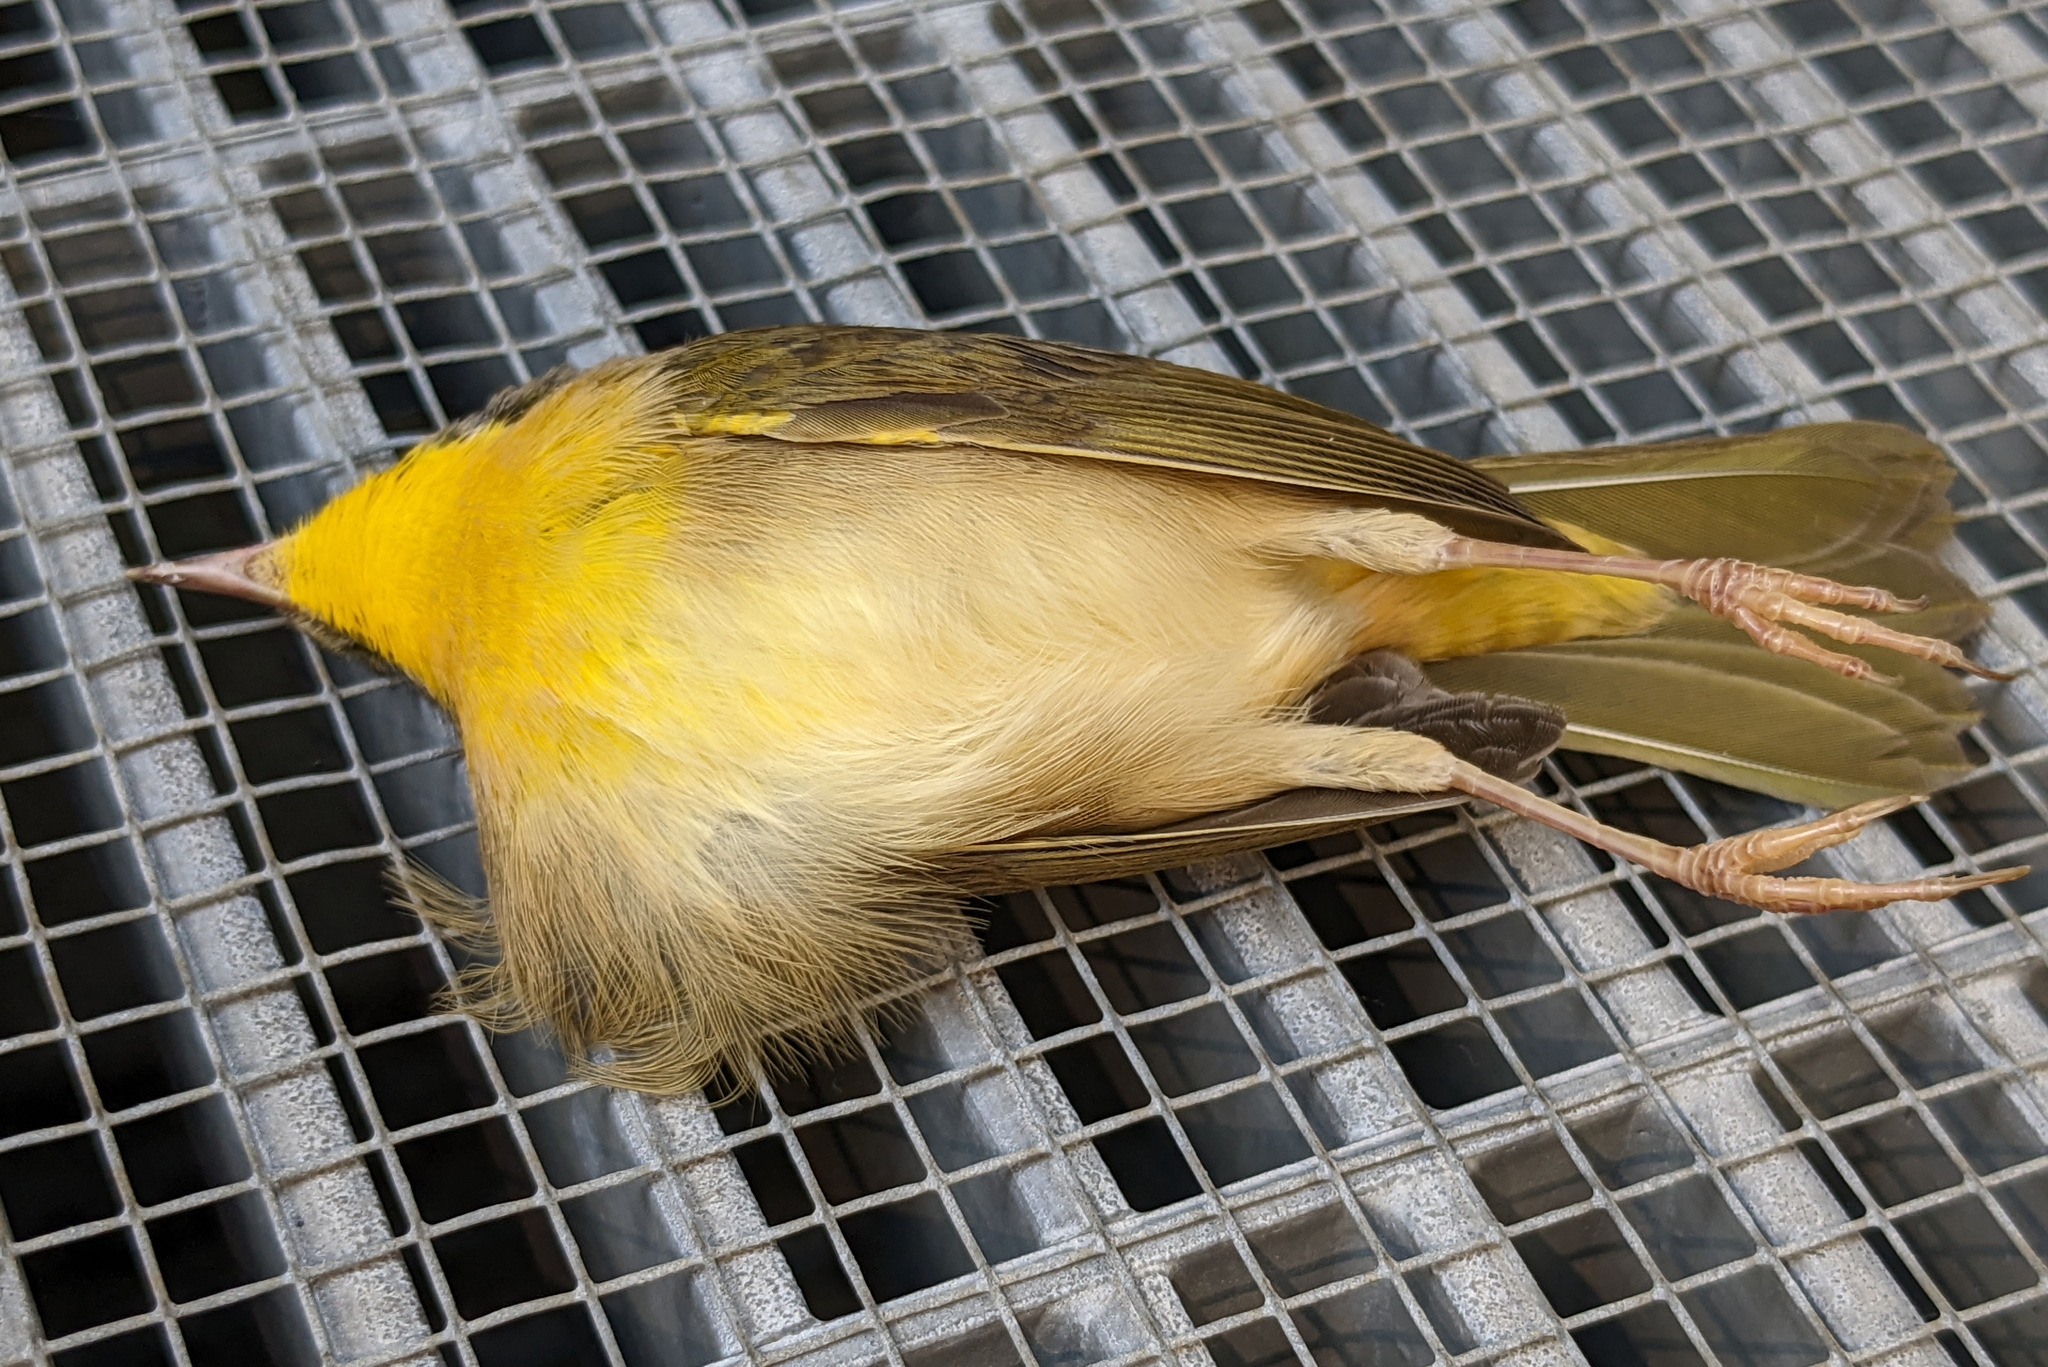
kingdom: Animalia
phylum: Chordata
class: Aves
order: Passeriformes
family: Parulidae
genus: Geothlypis
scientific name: Geothlypis trichas
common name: Common yellowthroat
